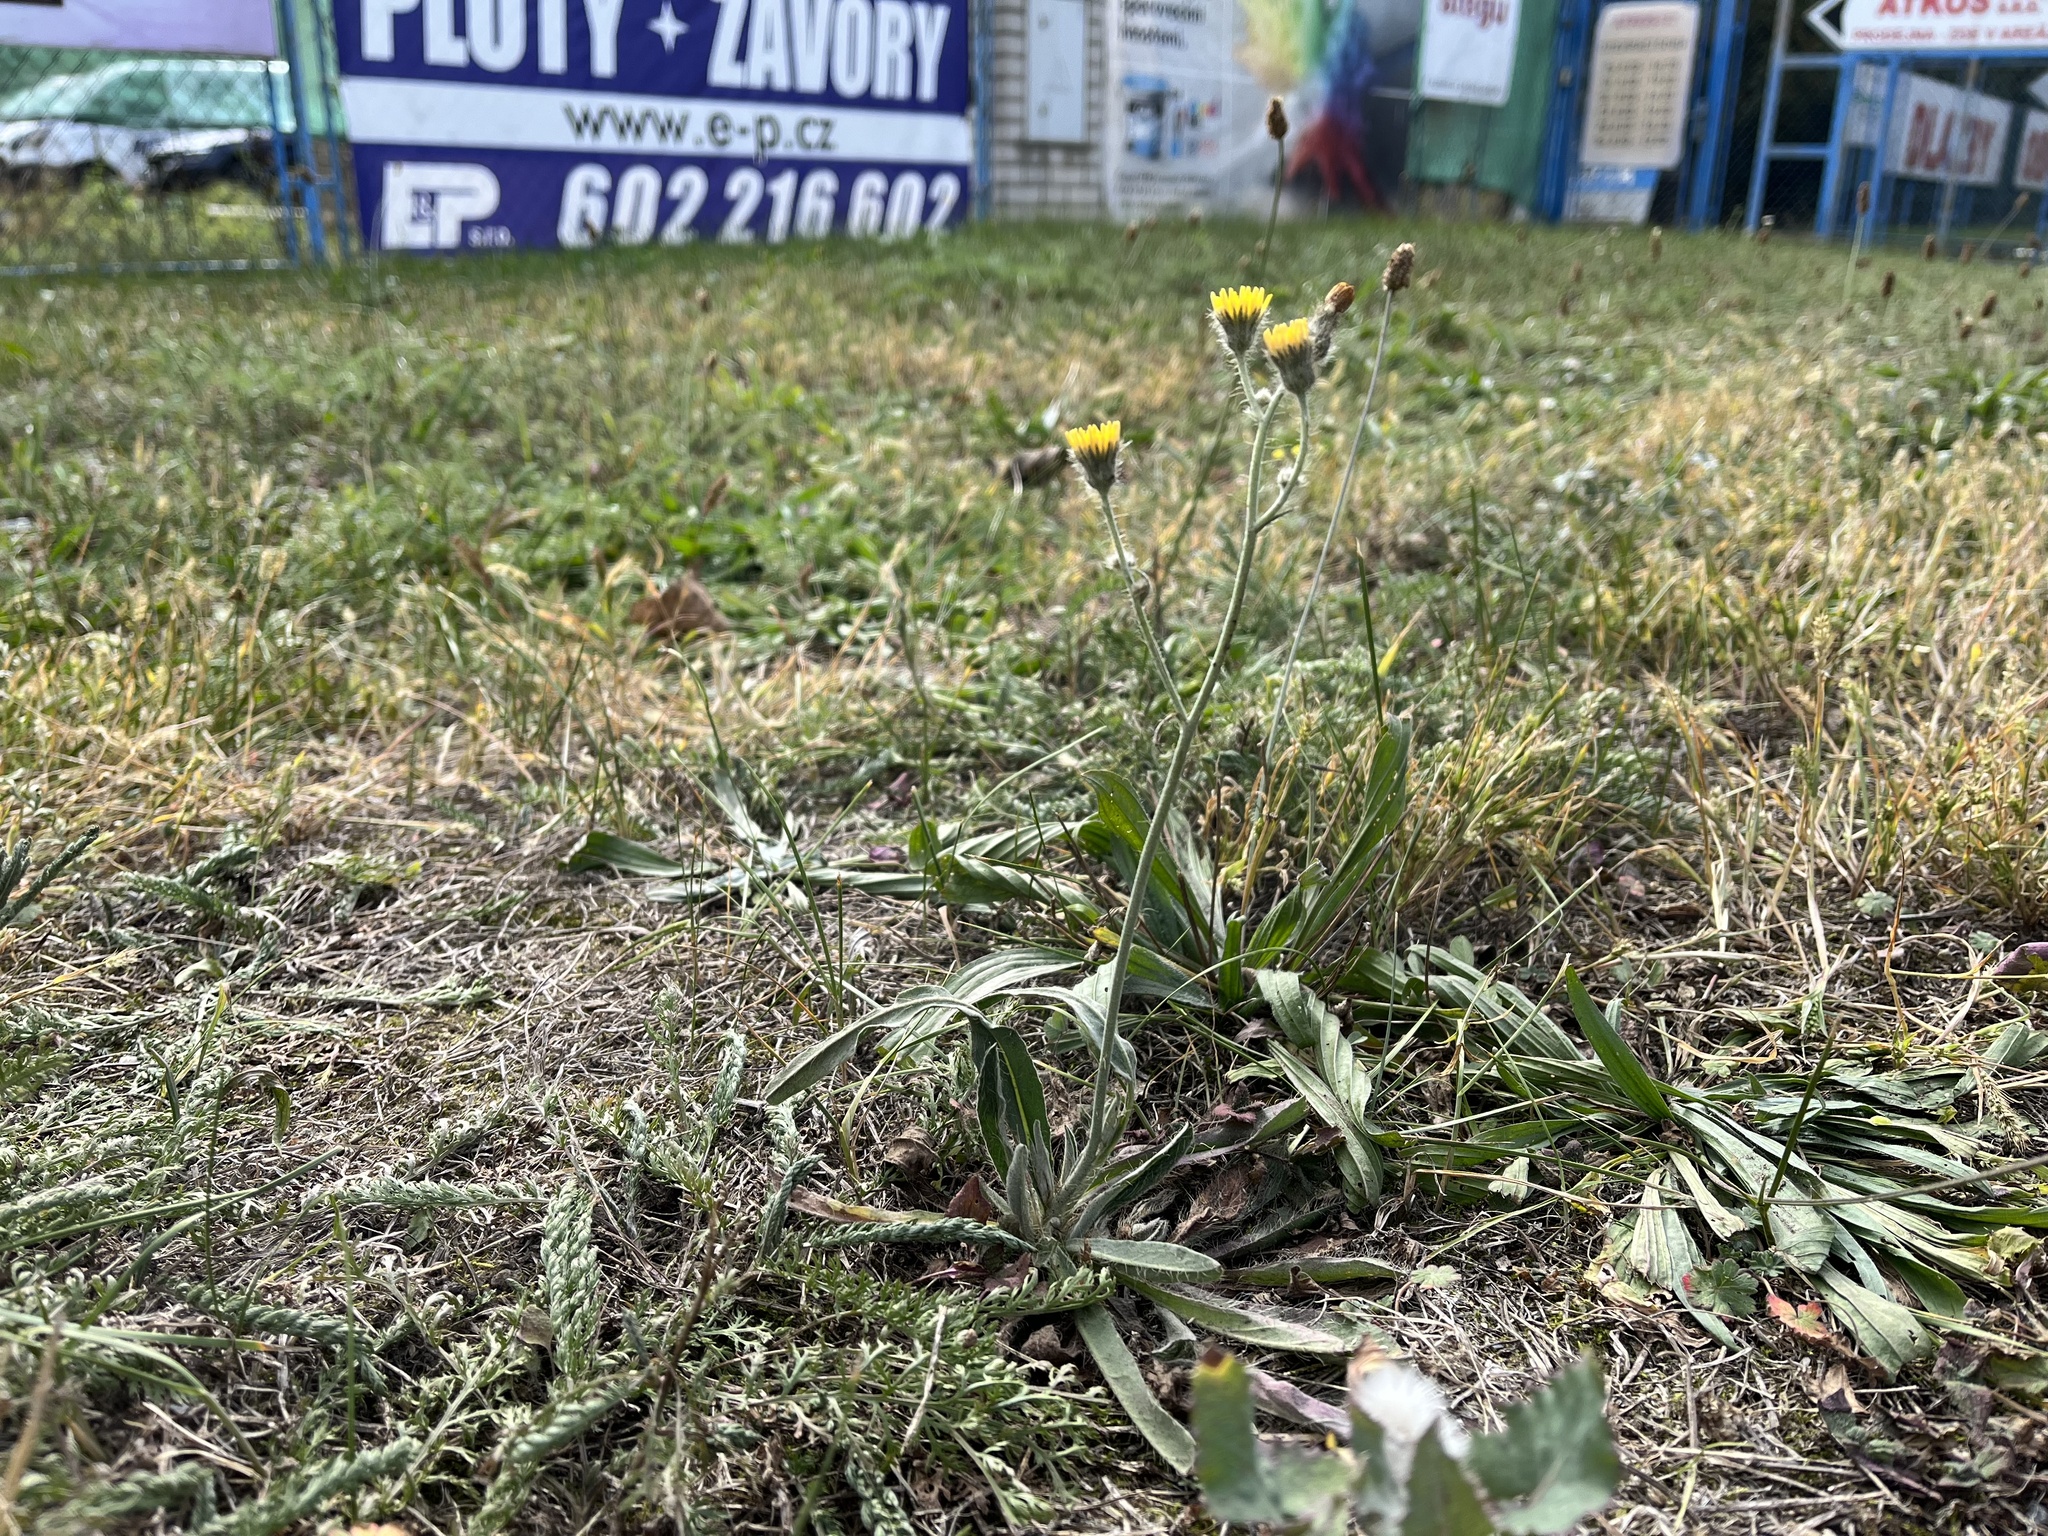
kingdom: Plantae
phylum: Tracheophyta
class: Magnoliopsida
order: Asterales
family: Asteraceae
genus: Pilosella
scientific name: Pilosella rothiana
